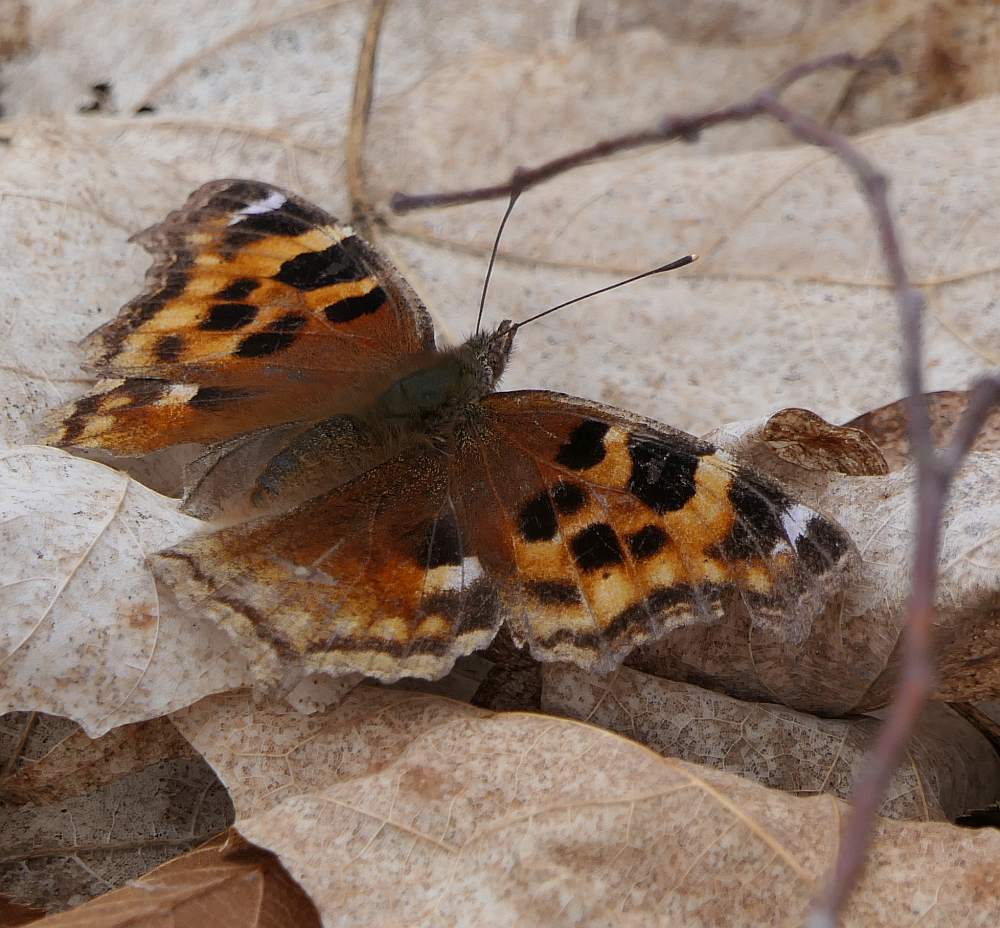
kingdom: Animalia
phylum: Arthropoda
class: Insecta
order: Lepidoptera
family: Nymphalidae
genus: Polygonia
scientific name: Polygonia vaualbum
